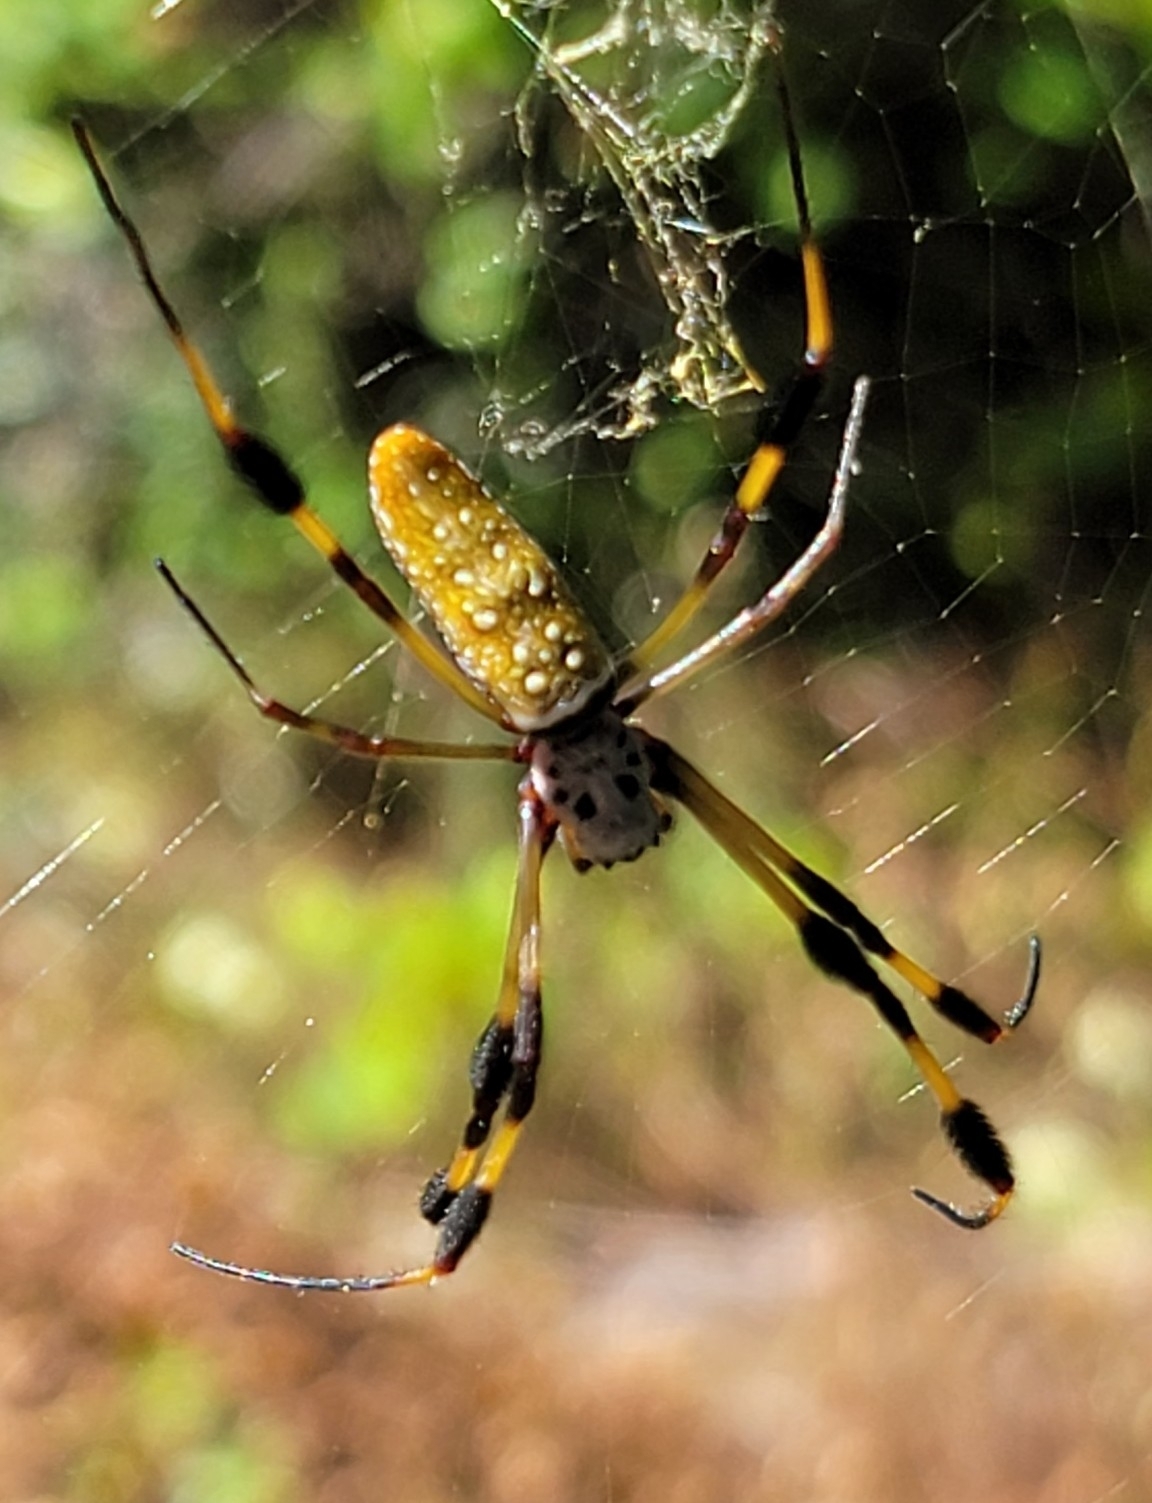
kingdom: Animalia
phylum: Arthropoda
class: Arachnida
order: Araneae
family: Araneidae
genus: Trichonephila
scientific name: Trichonephila clavipes
